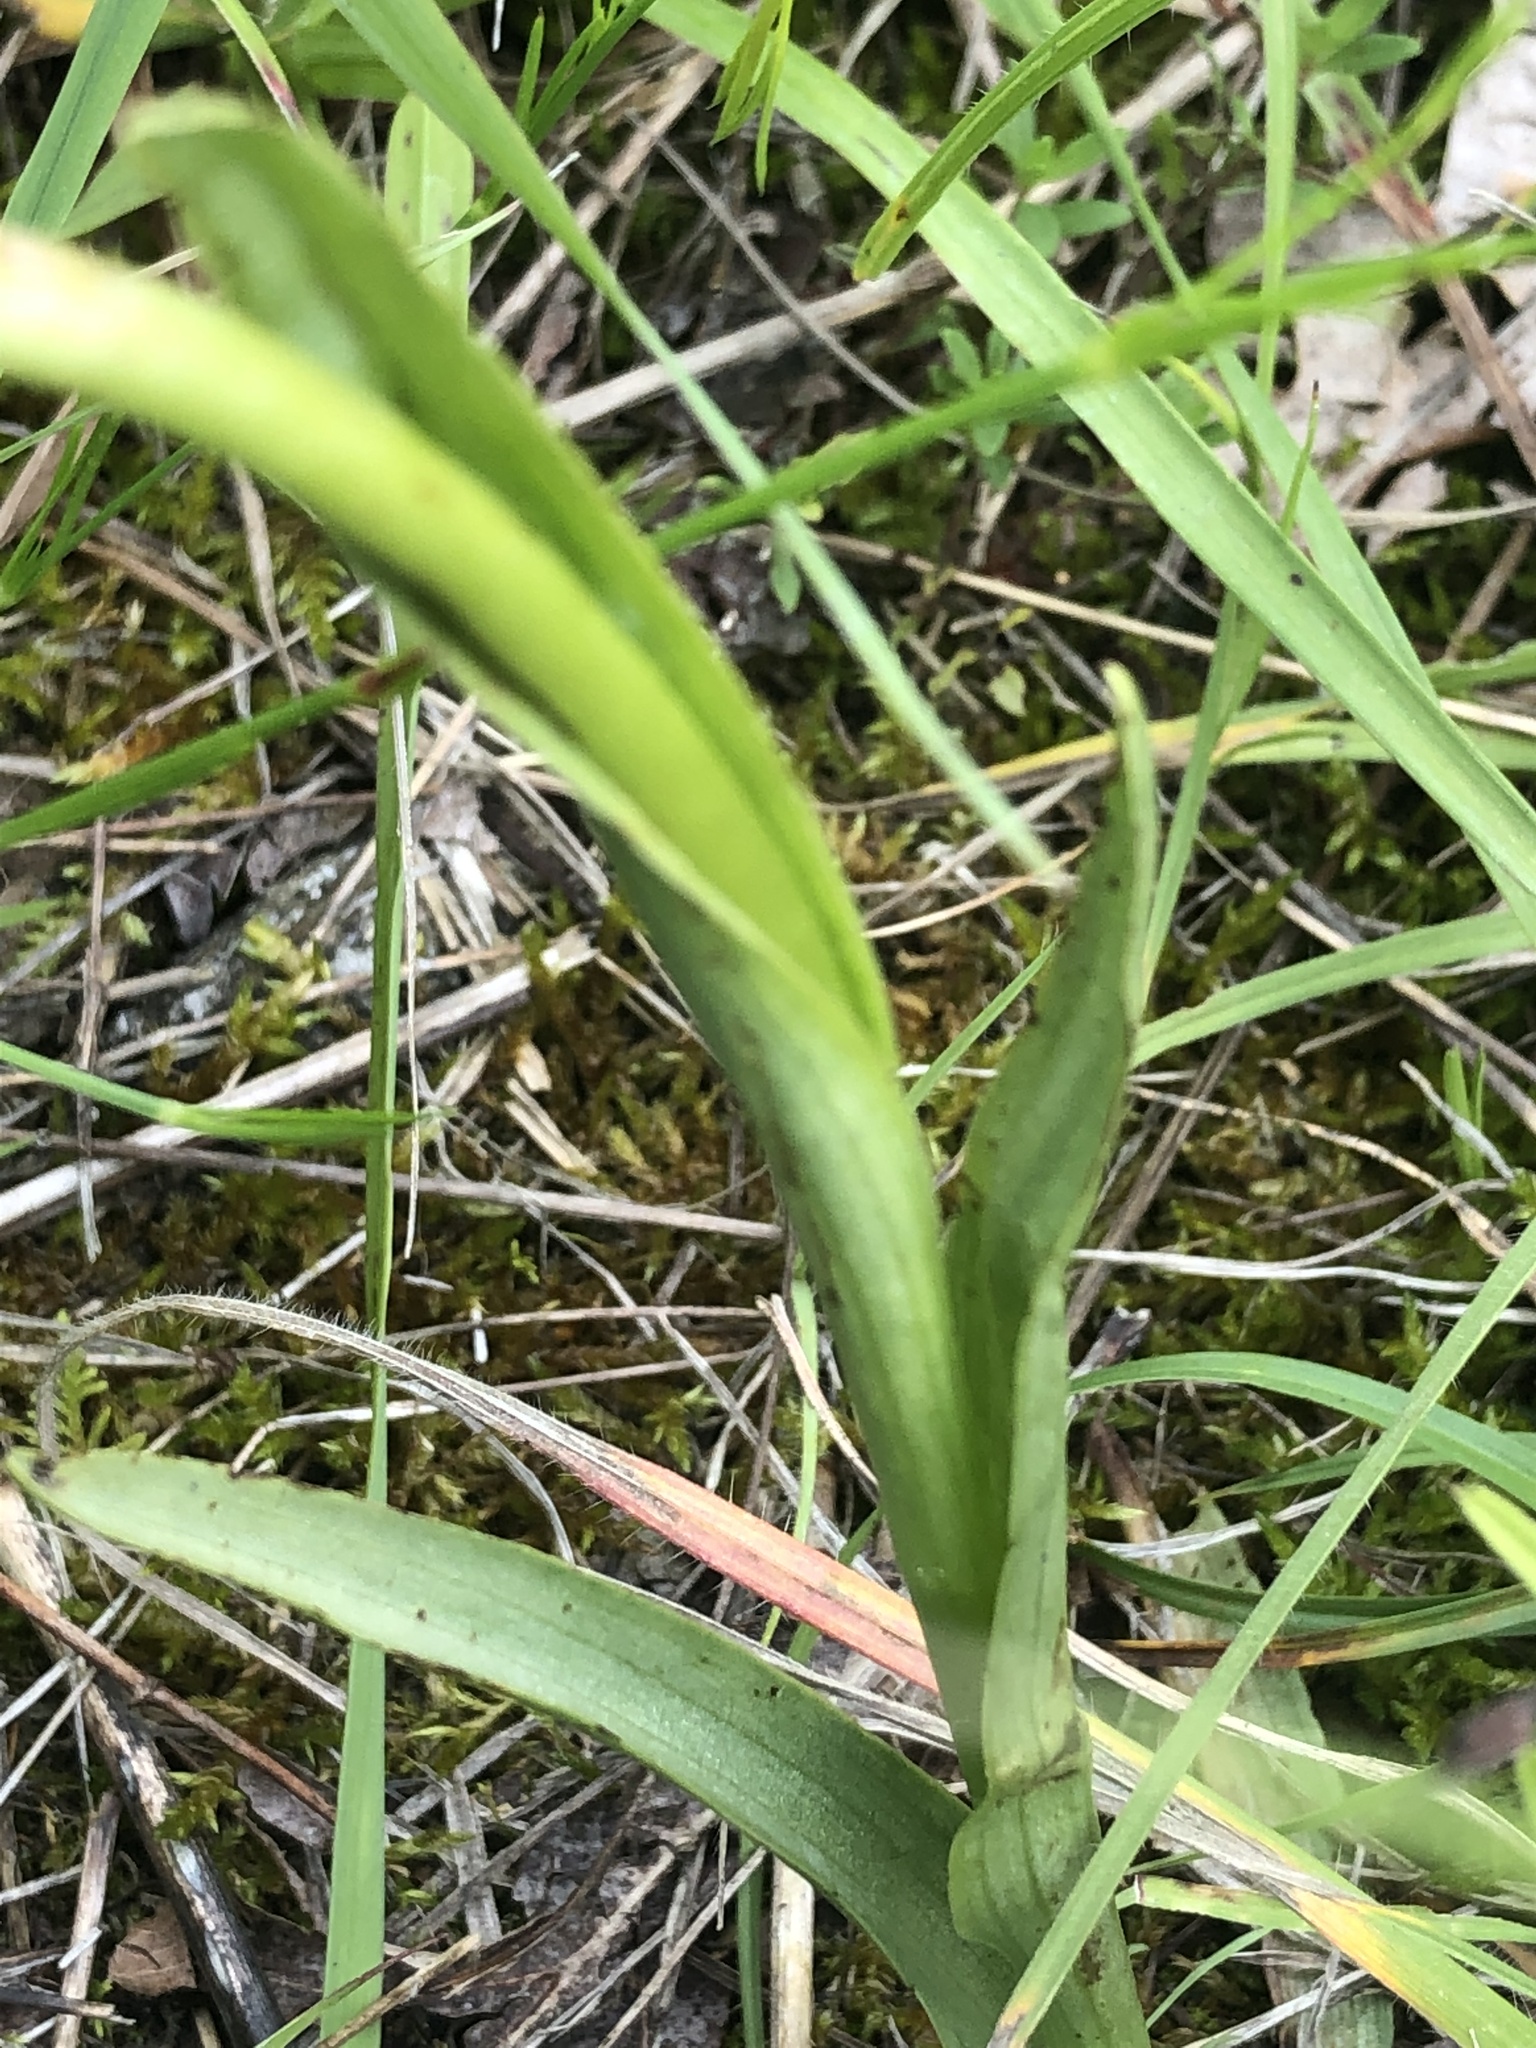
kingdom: Plantae
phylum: Tracheophyta
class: Liliopsida
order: Asparagales
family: Orchidaceae
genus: Anacamptis
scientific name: Anacamptis coriophora
